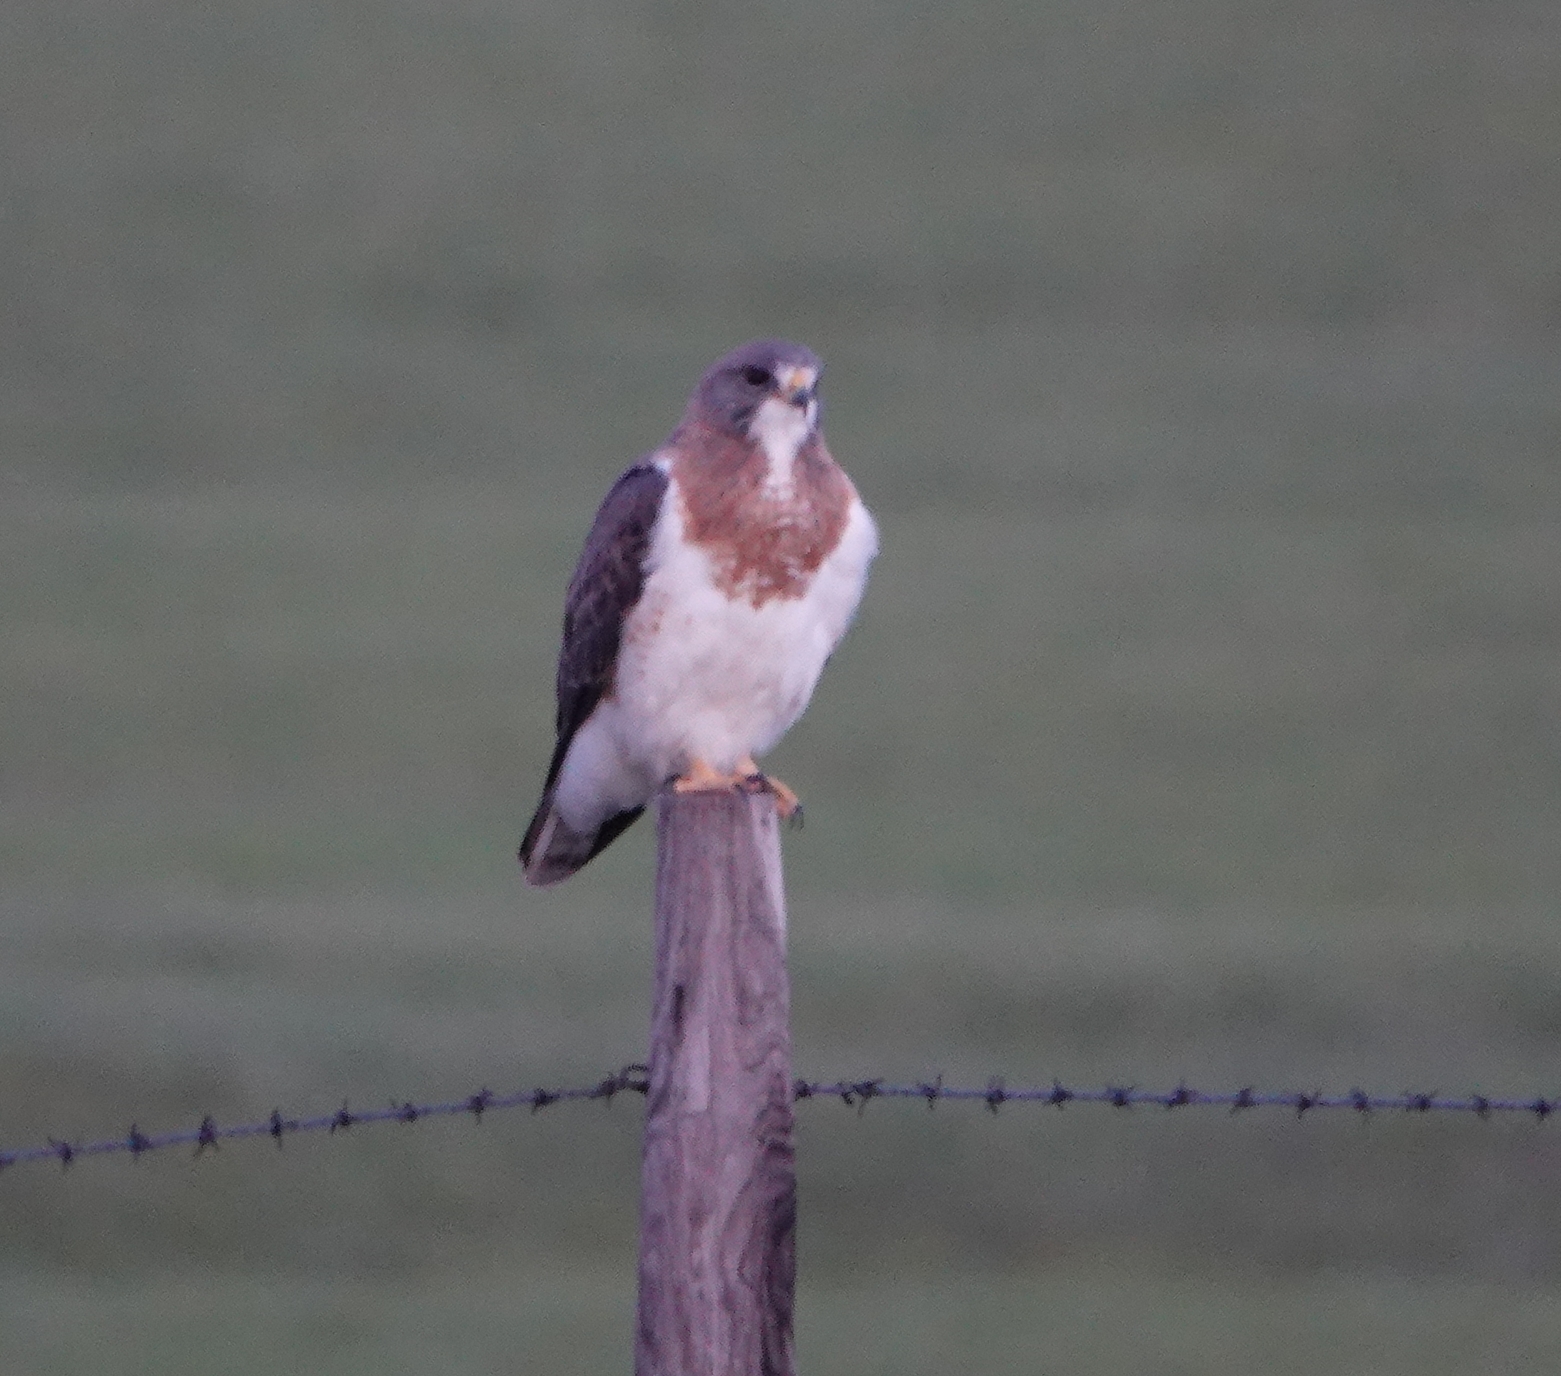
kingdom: Animalia
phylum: Chordata
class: Aves
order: Accipitriformes
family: Accipitridae
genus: Buteo
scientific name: Buteo swainsoni
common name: Swainson's hawk
